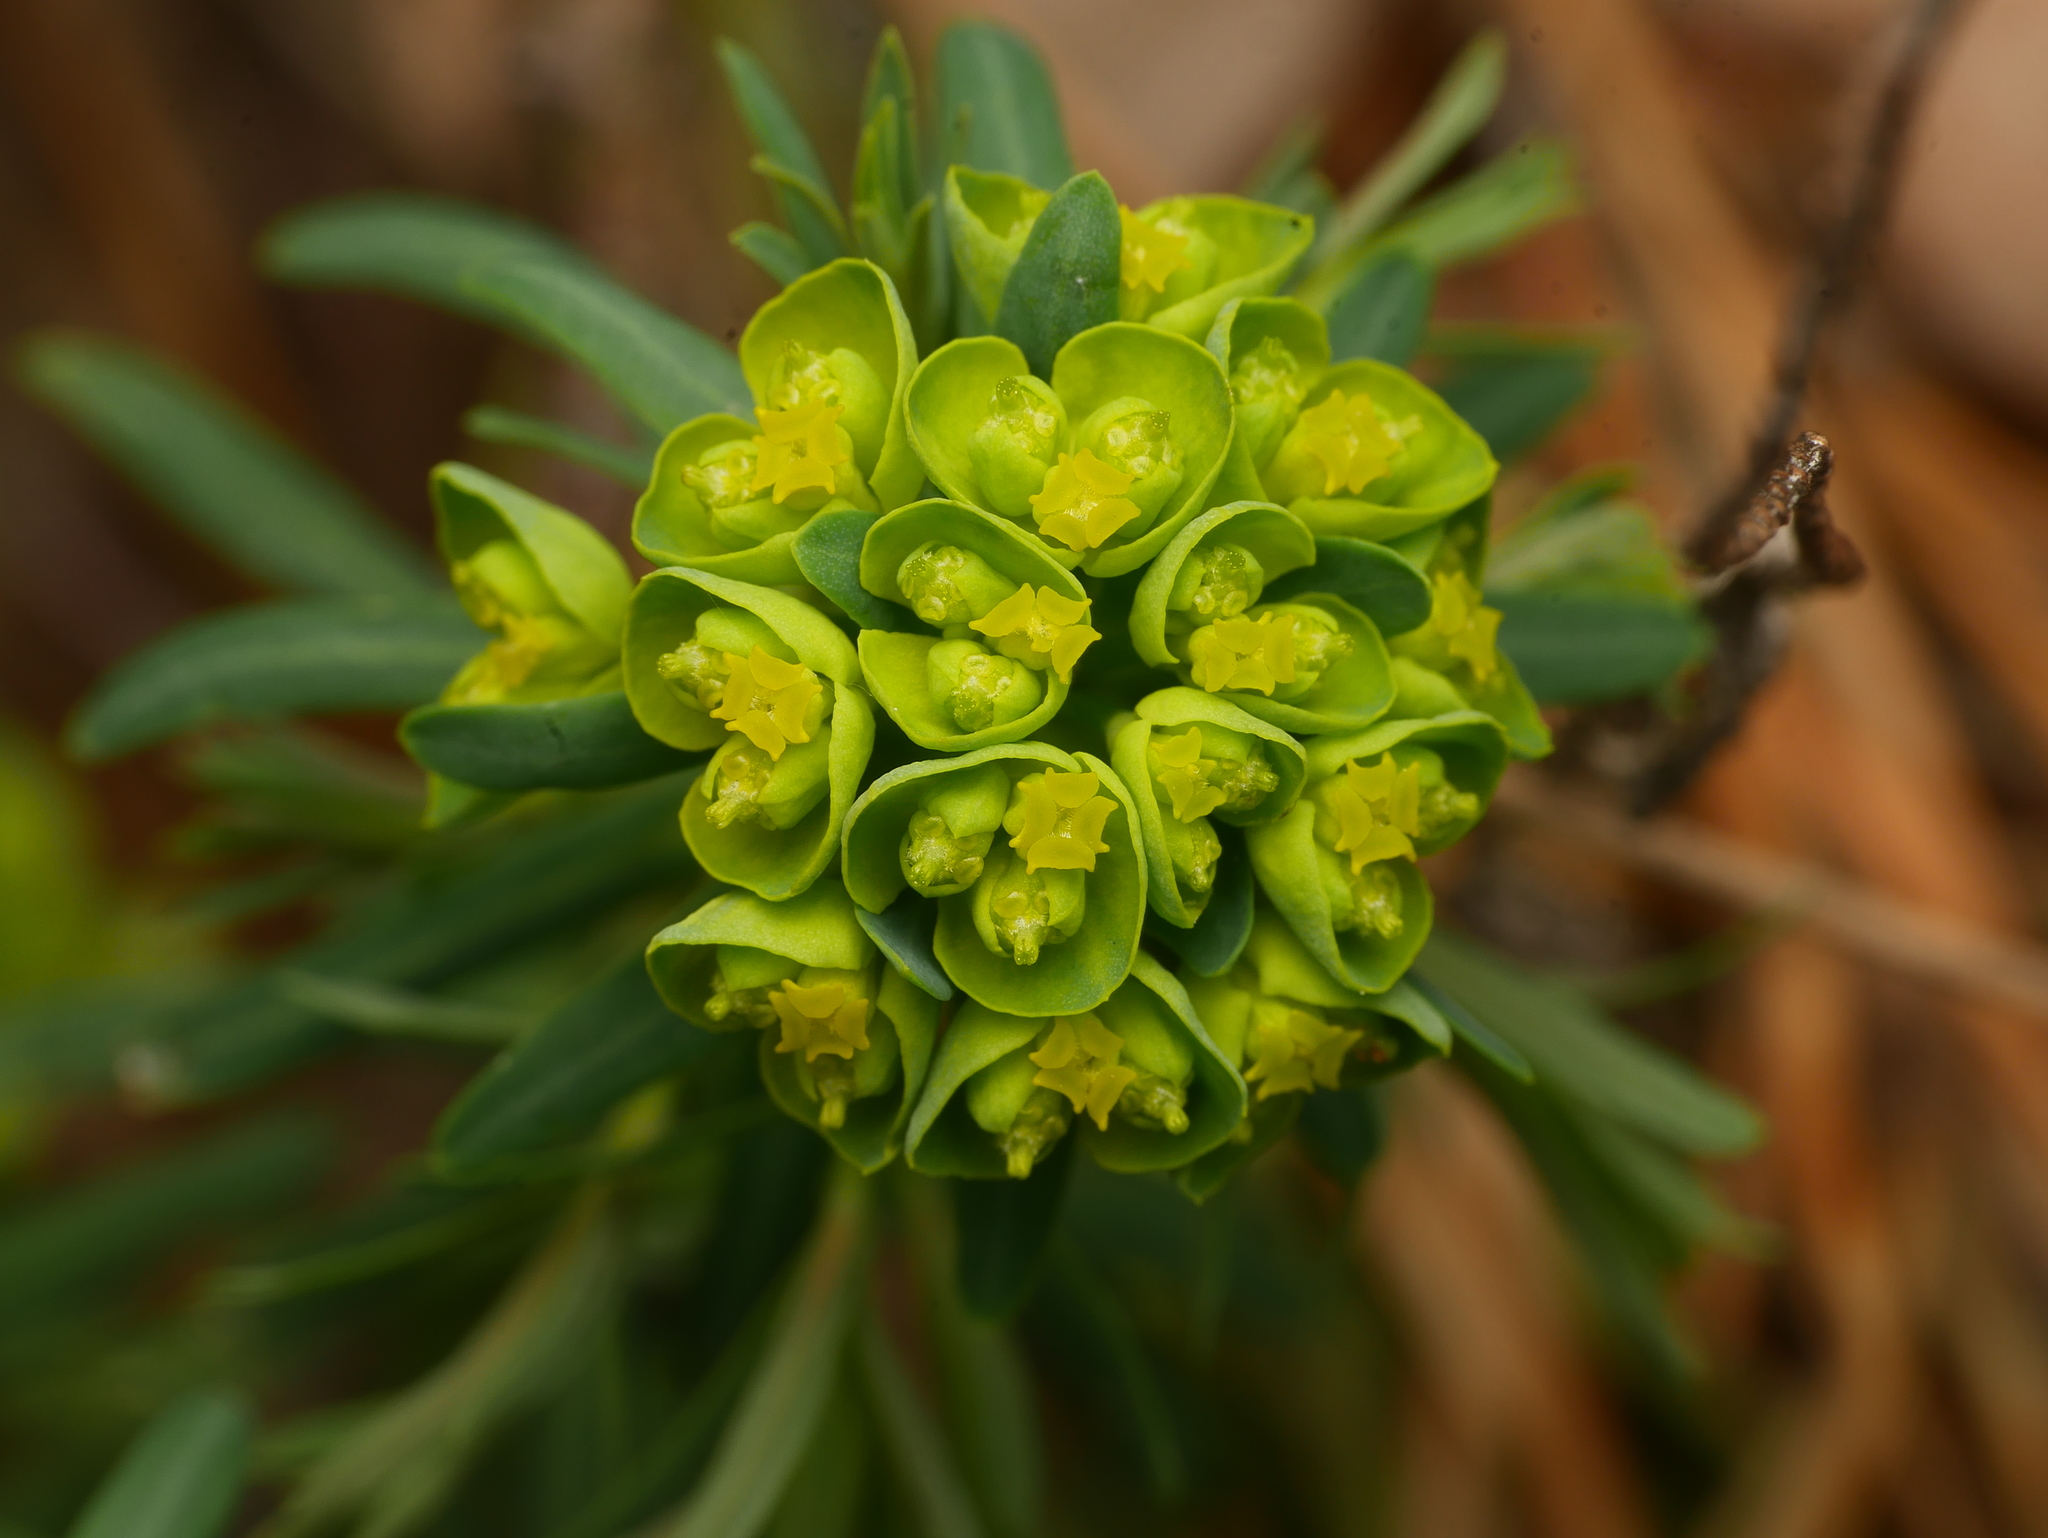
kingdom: Plantae
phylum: Tracheophyta
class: Magnoliopsida
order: Malpighiales
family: Euphorbiaceae
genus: Euphorbia
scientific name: Euphorbia cyparissias
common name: Cypress spurge
